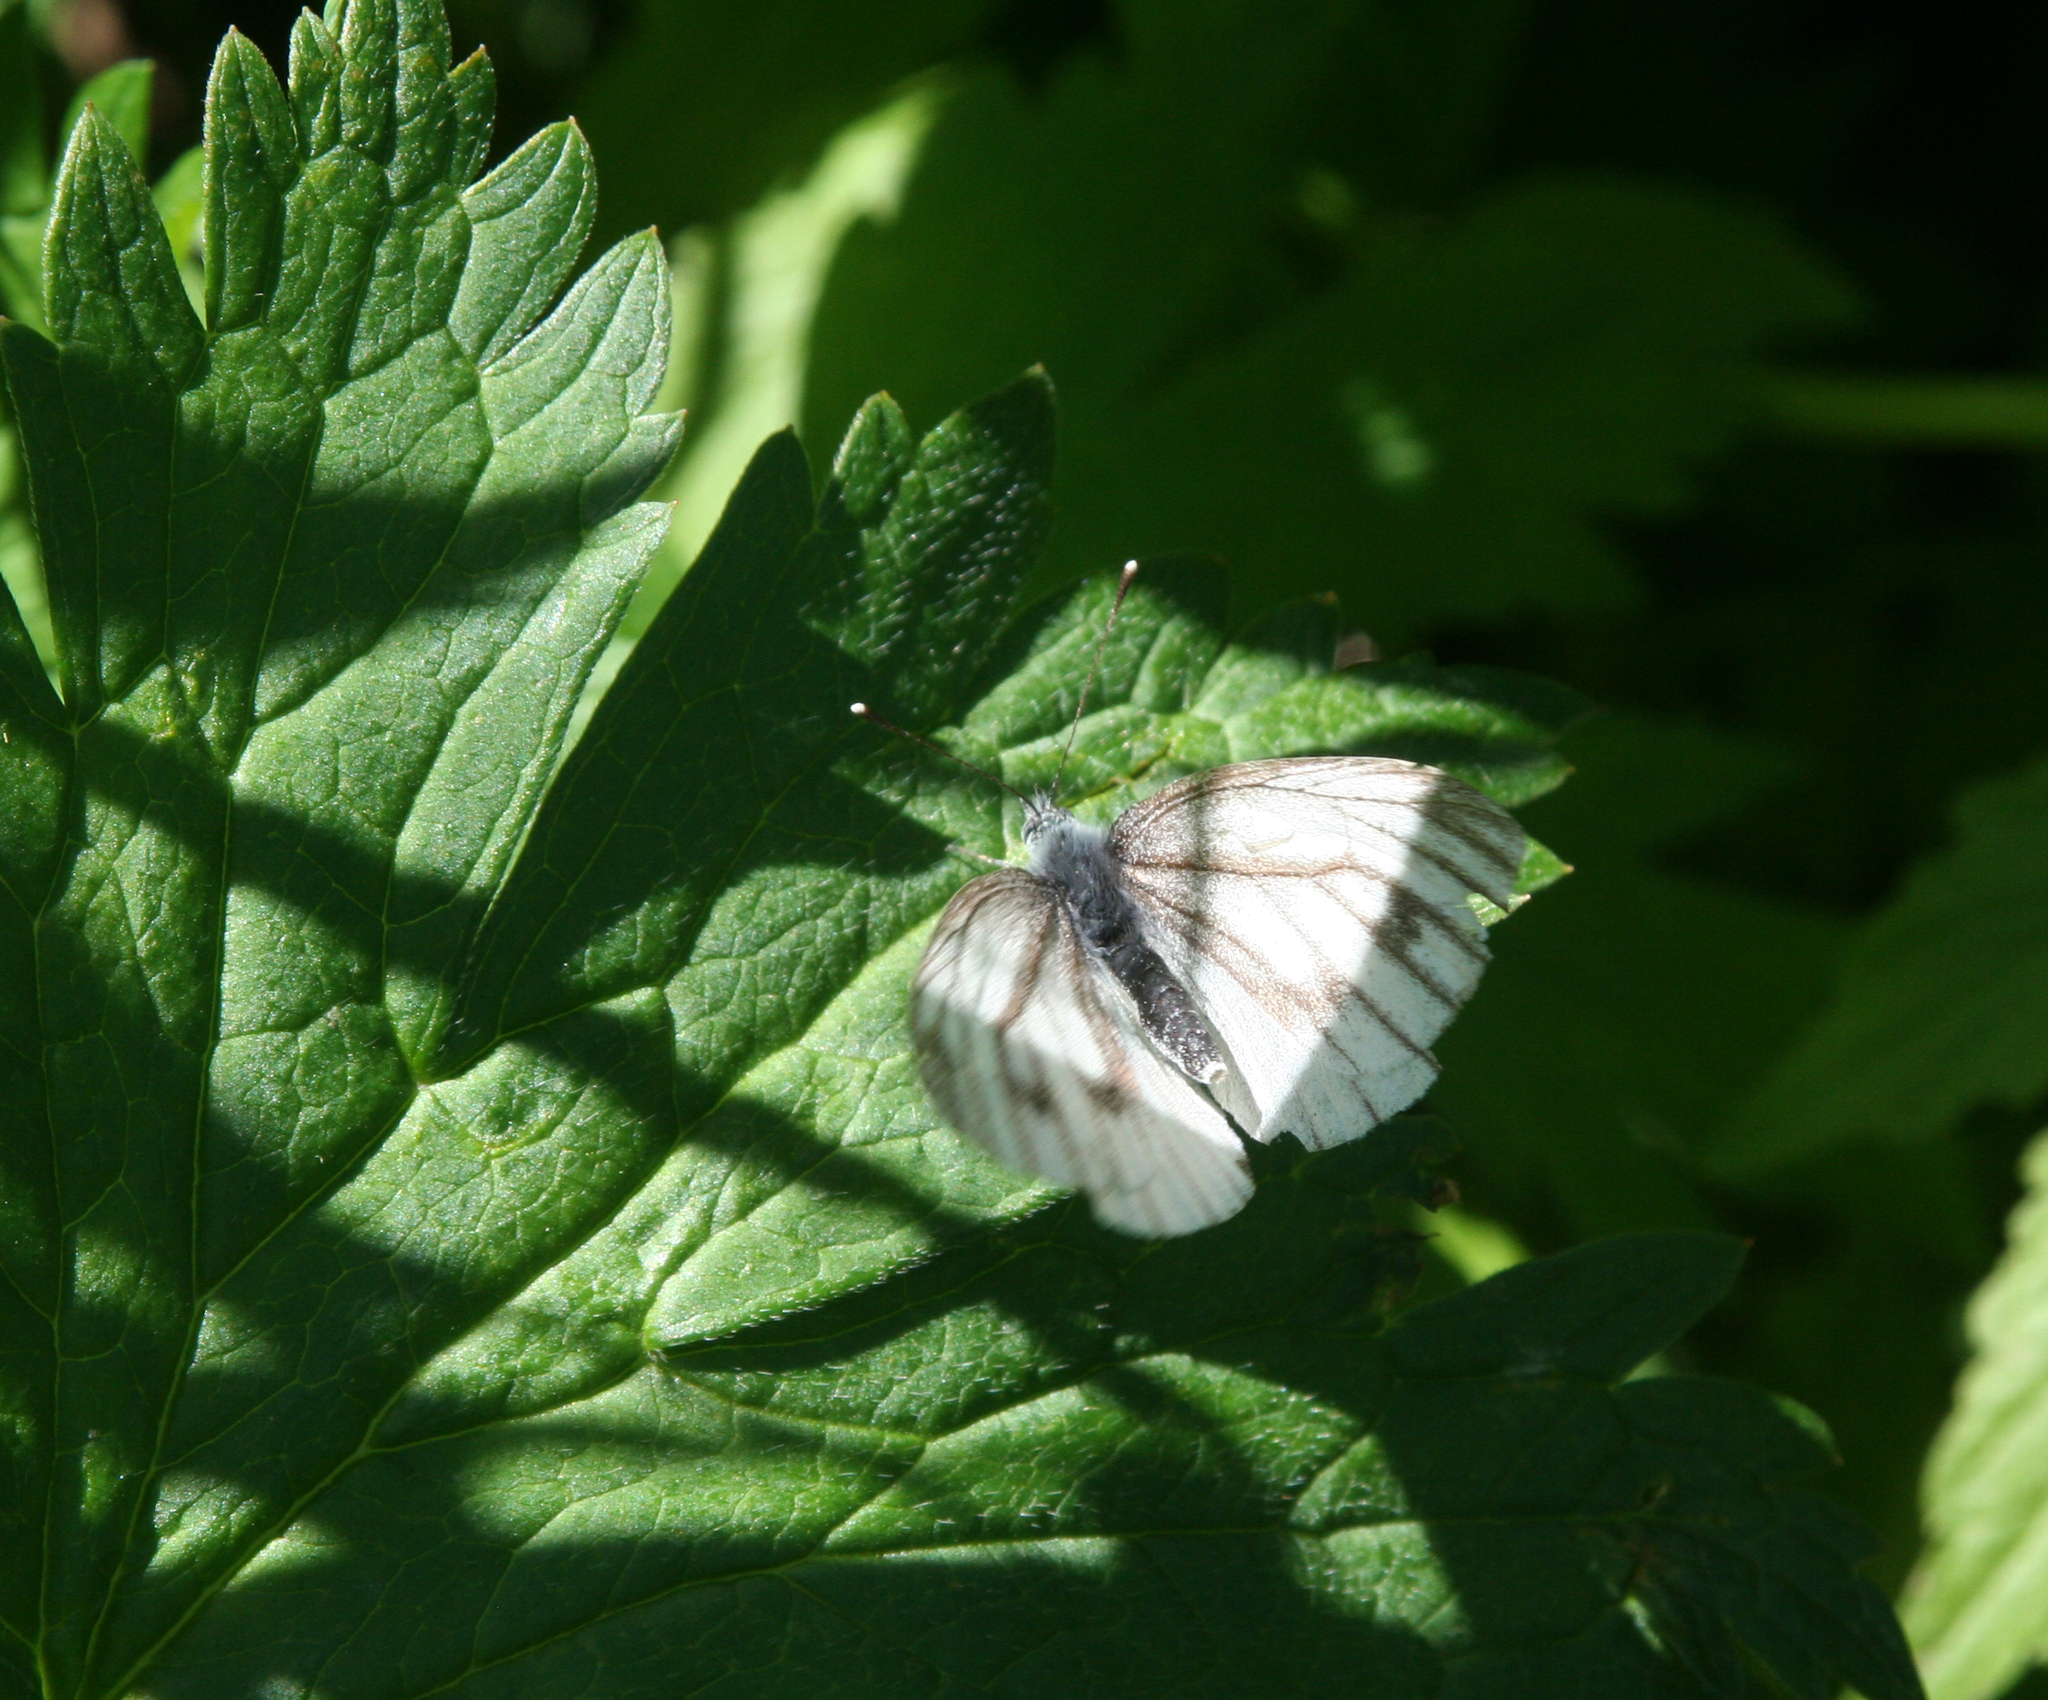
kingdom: Animalia
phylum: Arthropoda
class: Insecta
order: Lepidoptera
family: Pieridae
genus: Pieris
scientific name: Pieris napi
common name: Green-veined white
